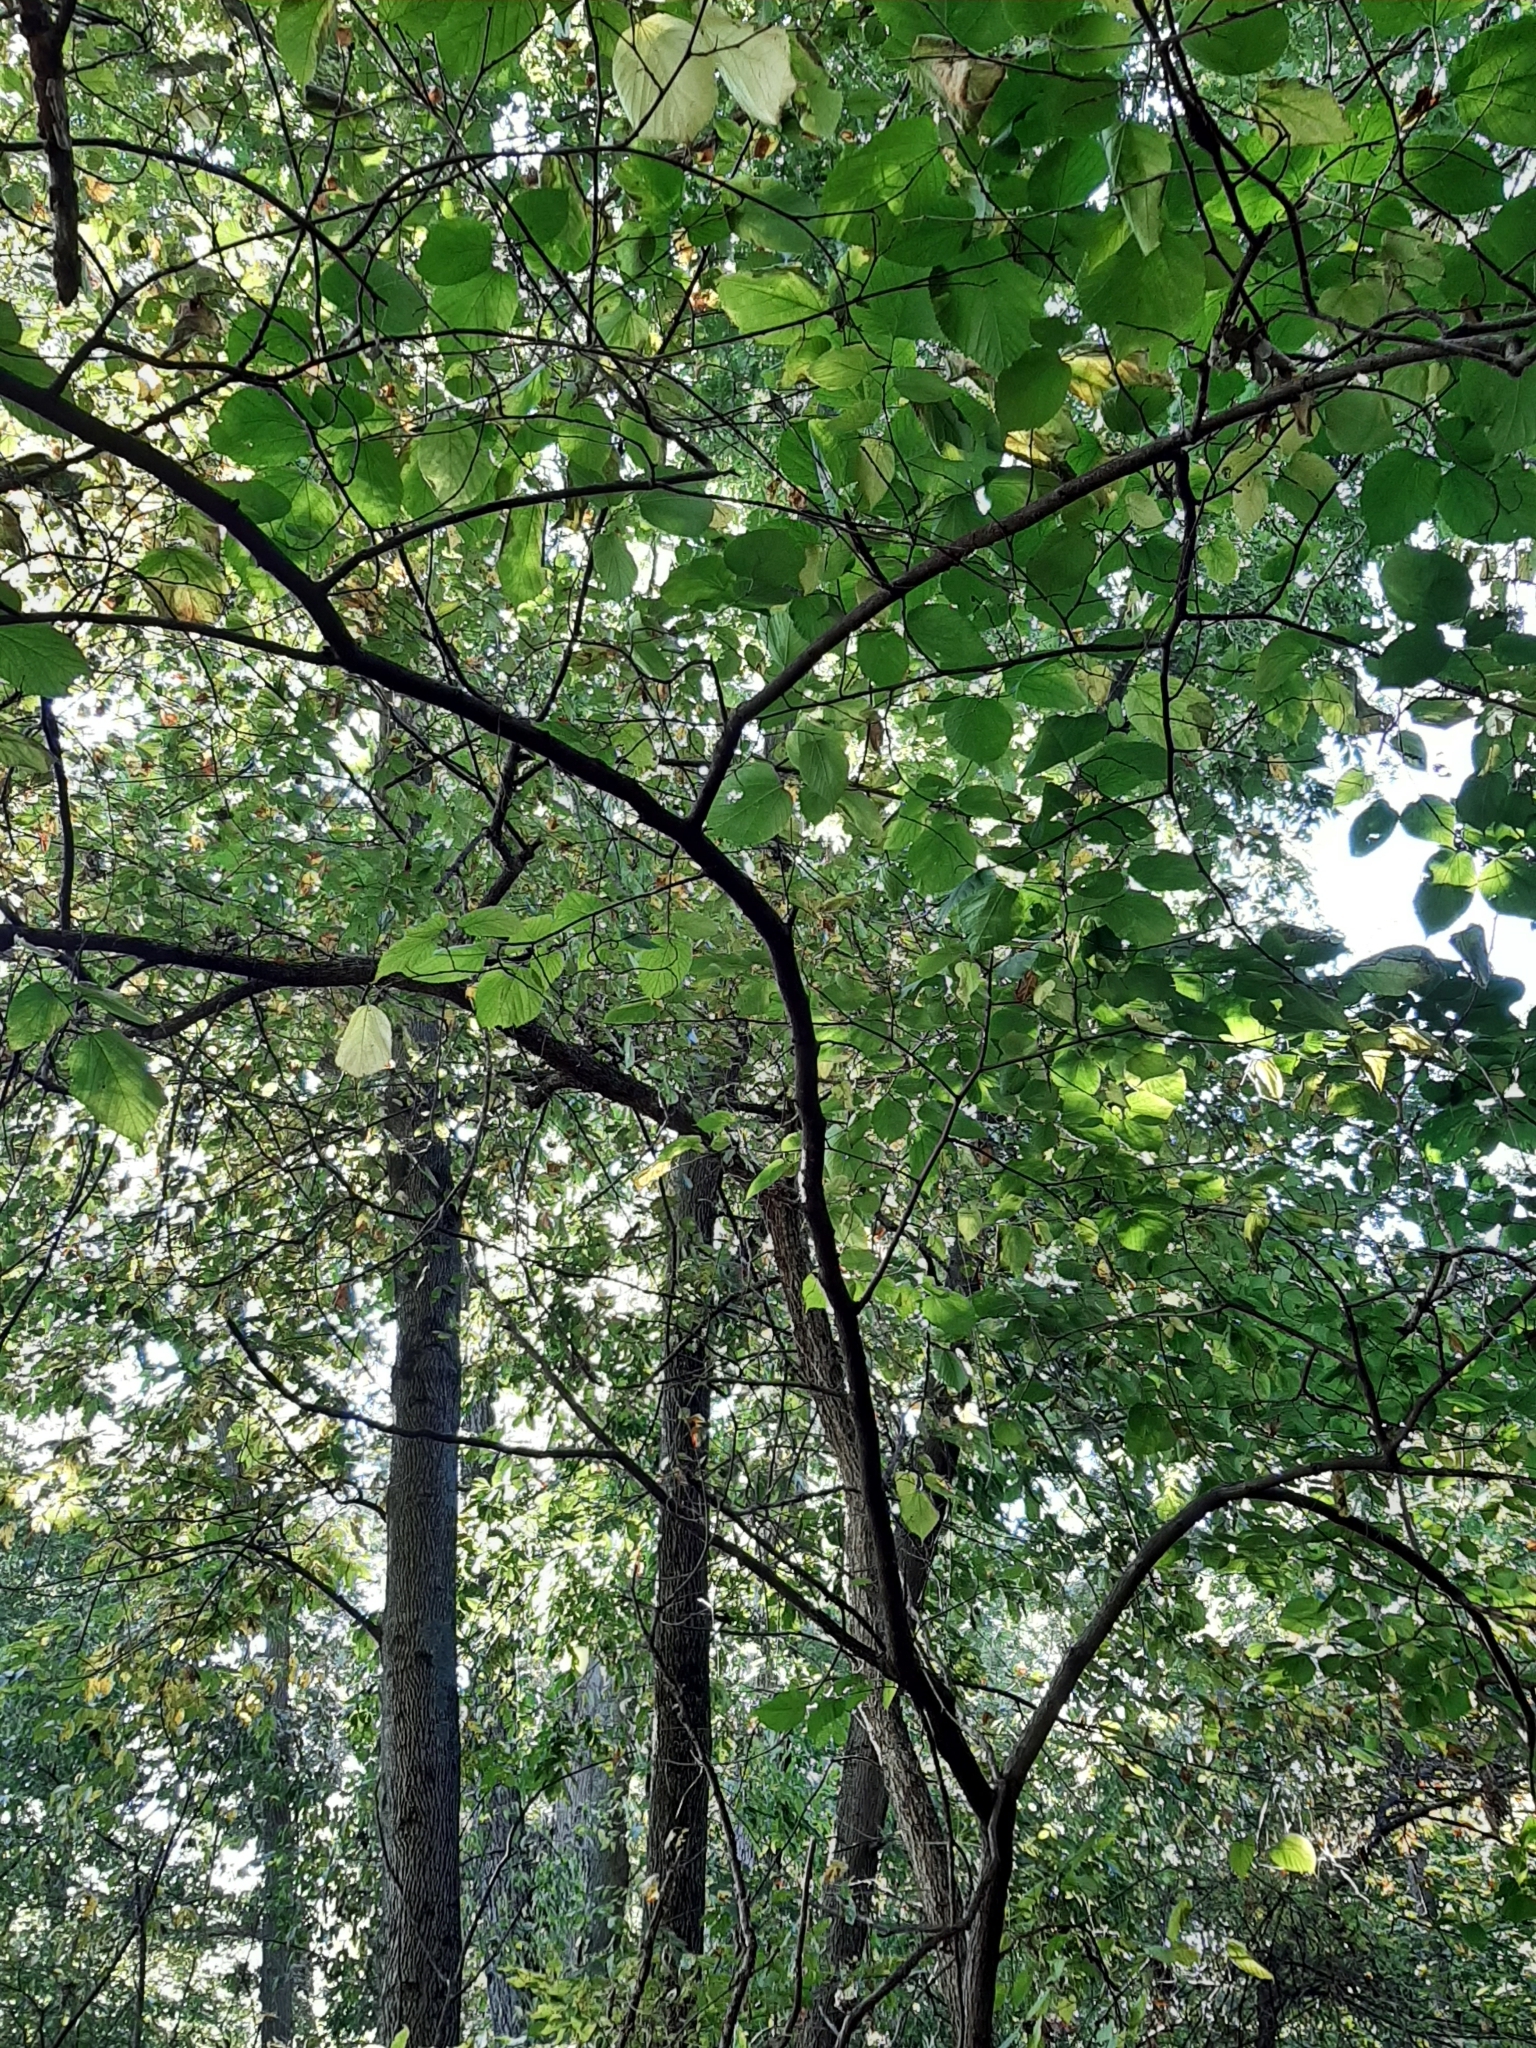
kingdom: Plantae
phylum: Tracheophyta
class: Magnoliopsida
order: Rosales
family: Moraceae
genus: Morus
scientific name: Morus rubra
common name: Red mulberry
